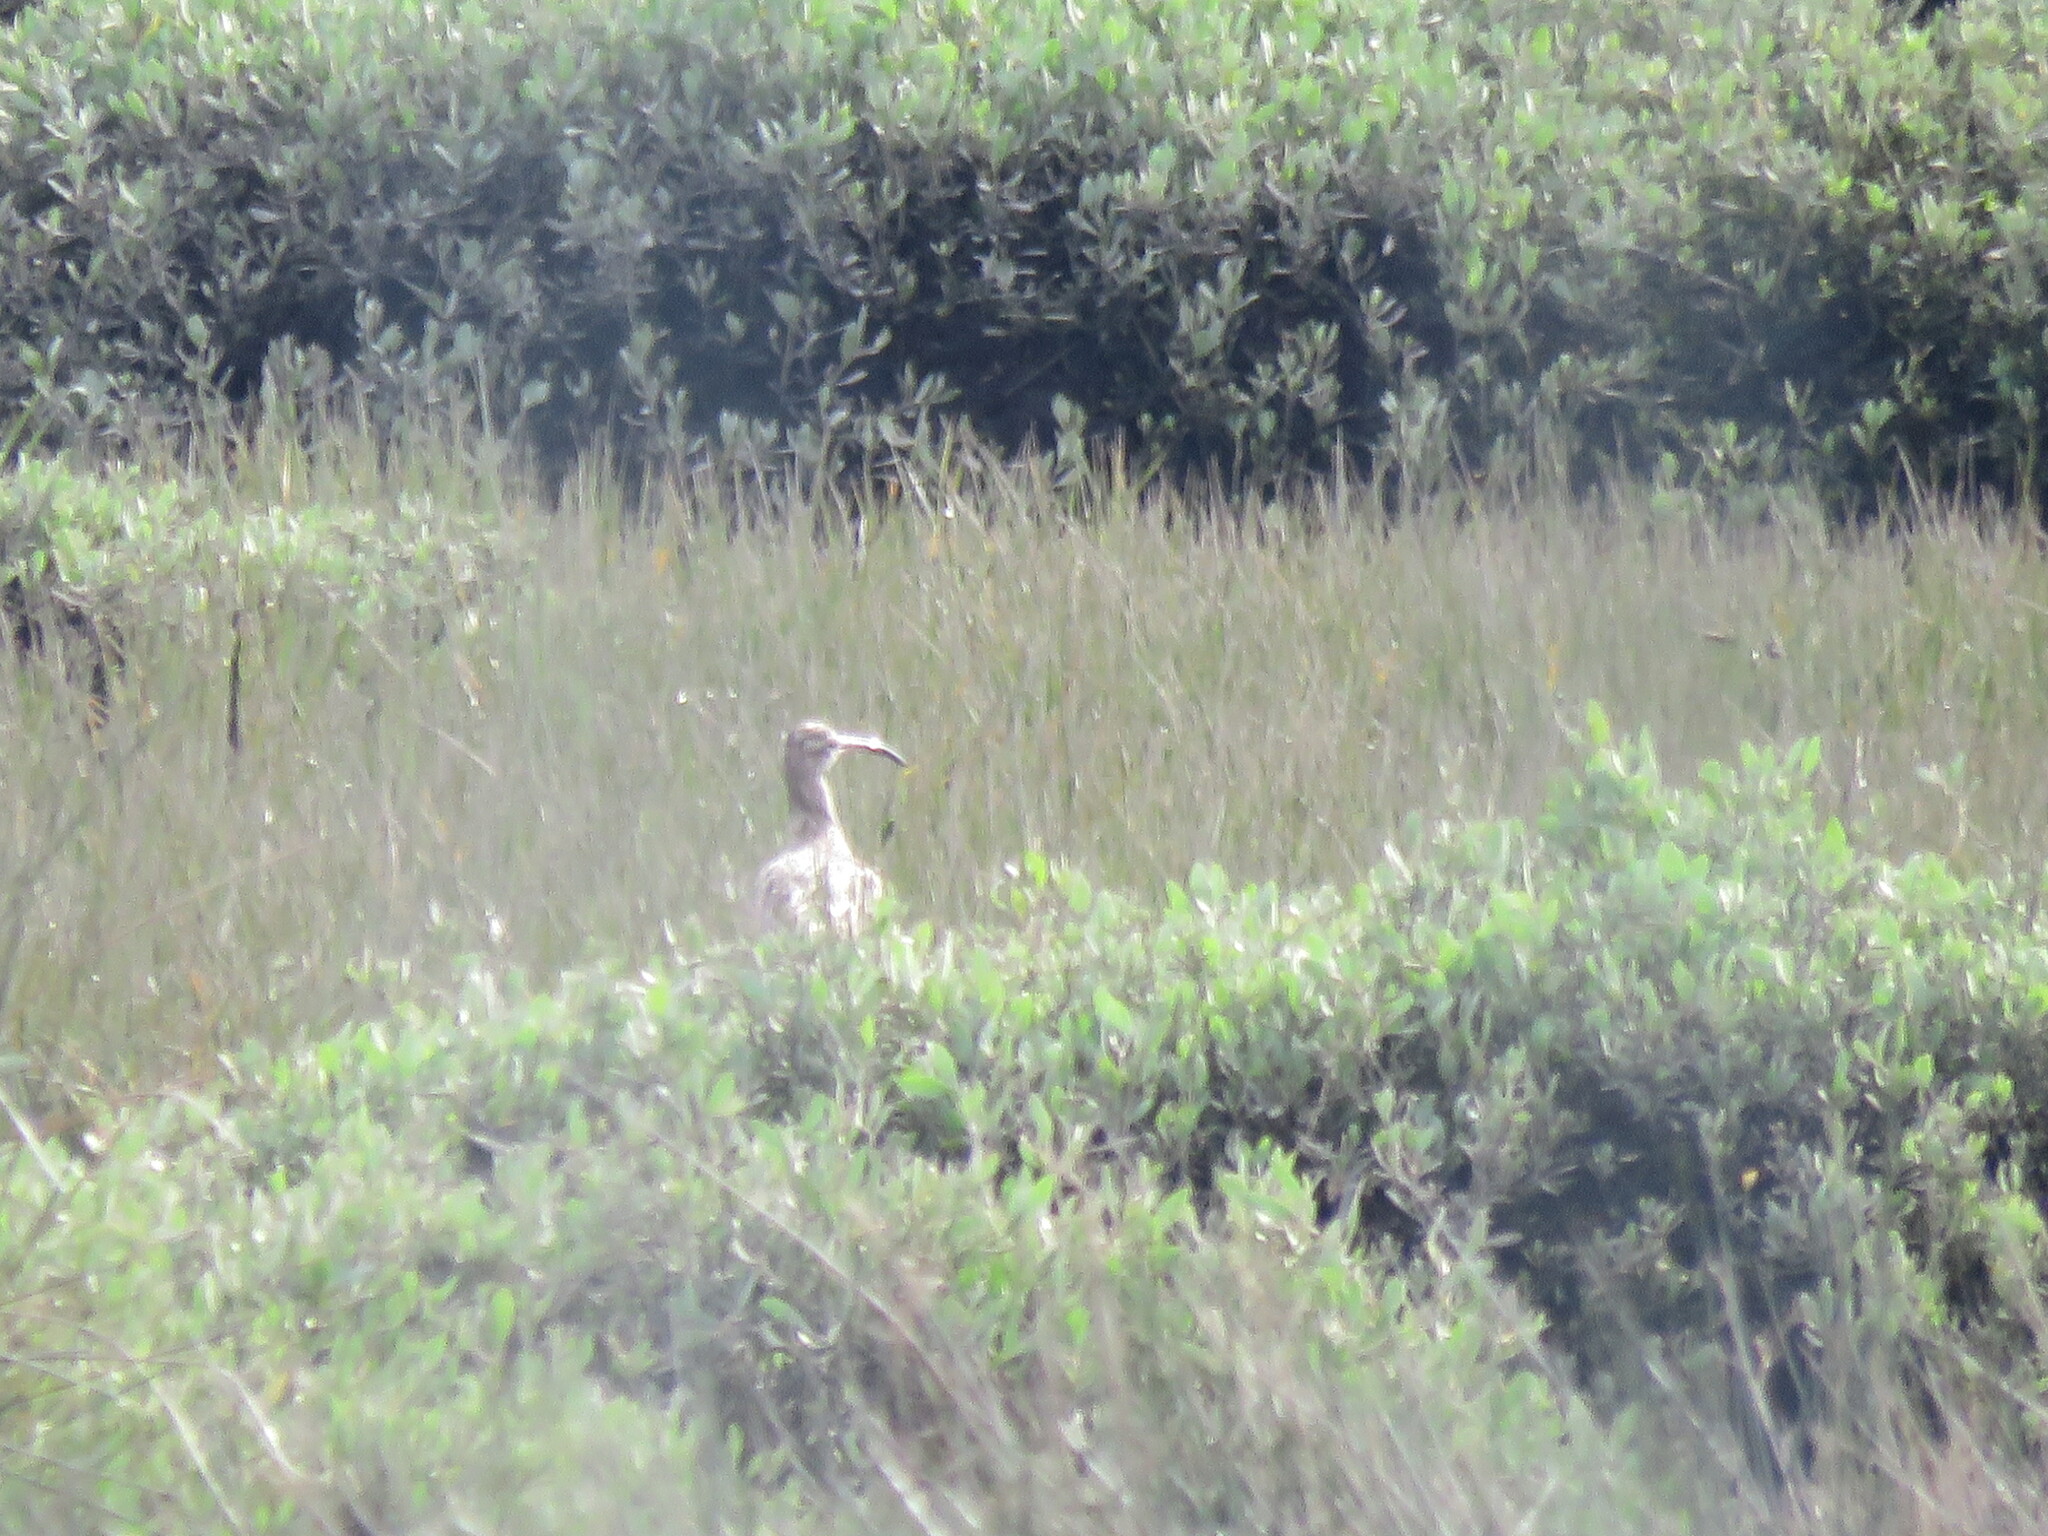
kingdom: Animalia
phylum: Chordata
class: Aves
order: Charadriiformes
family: Scolopacidae
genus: Numenius
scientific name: Numenius phaeopus
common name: Whimbrel
